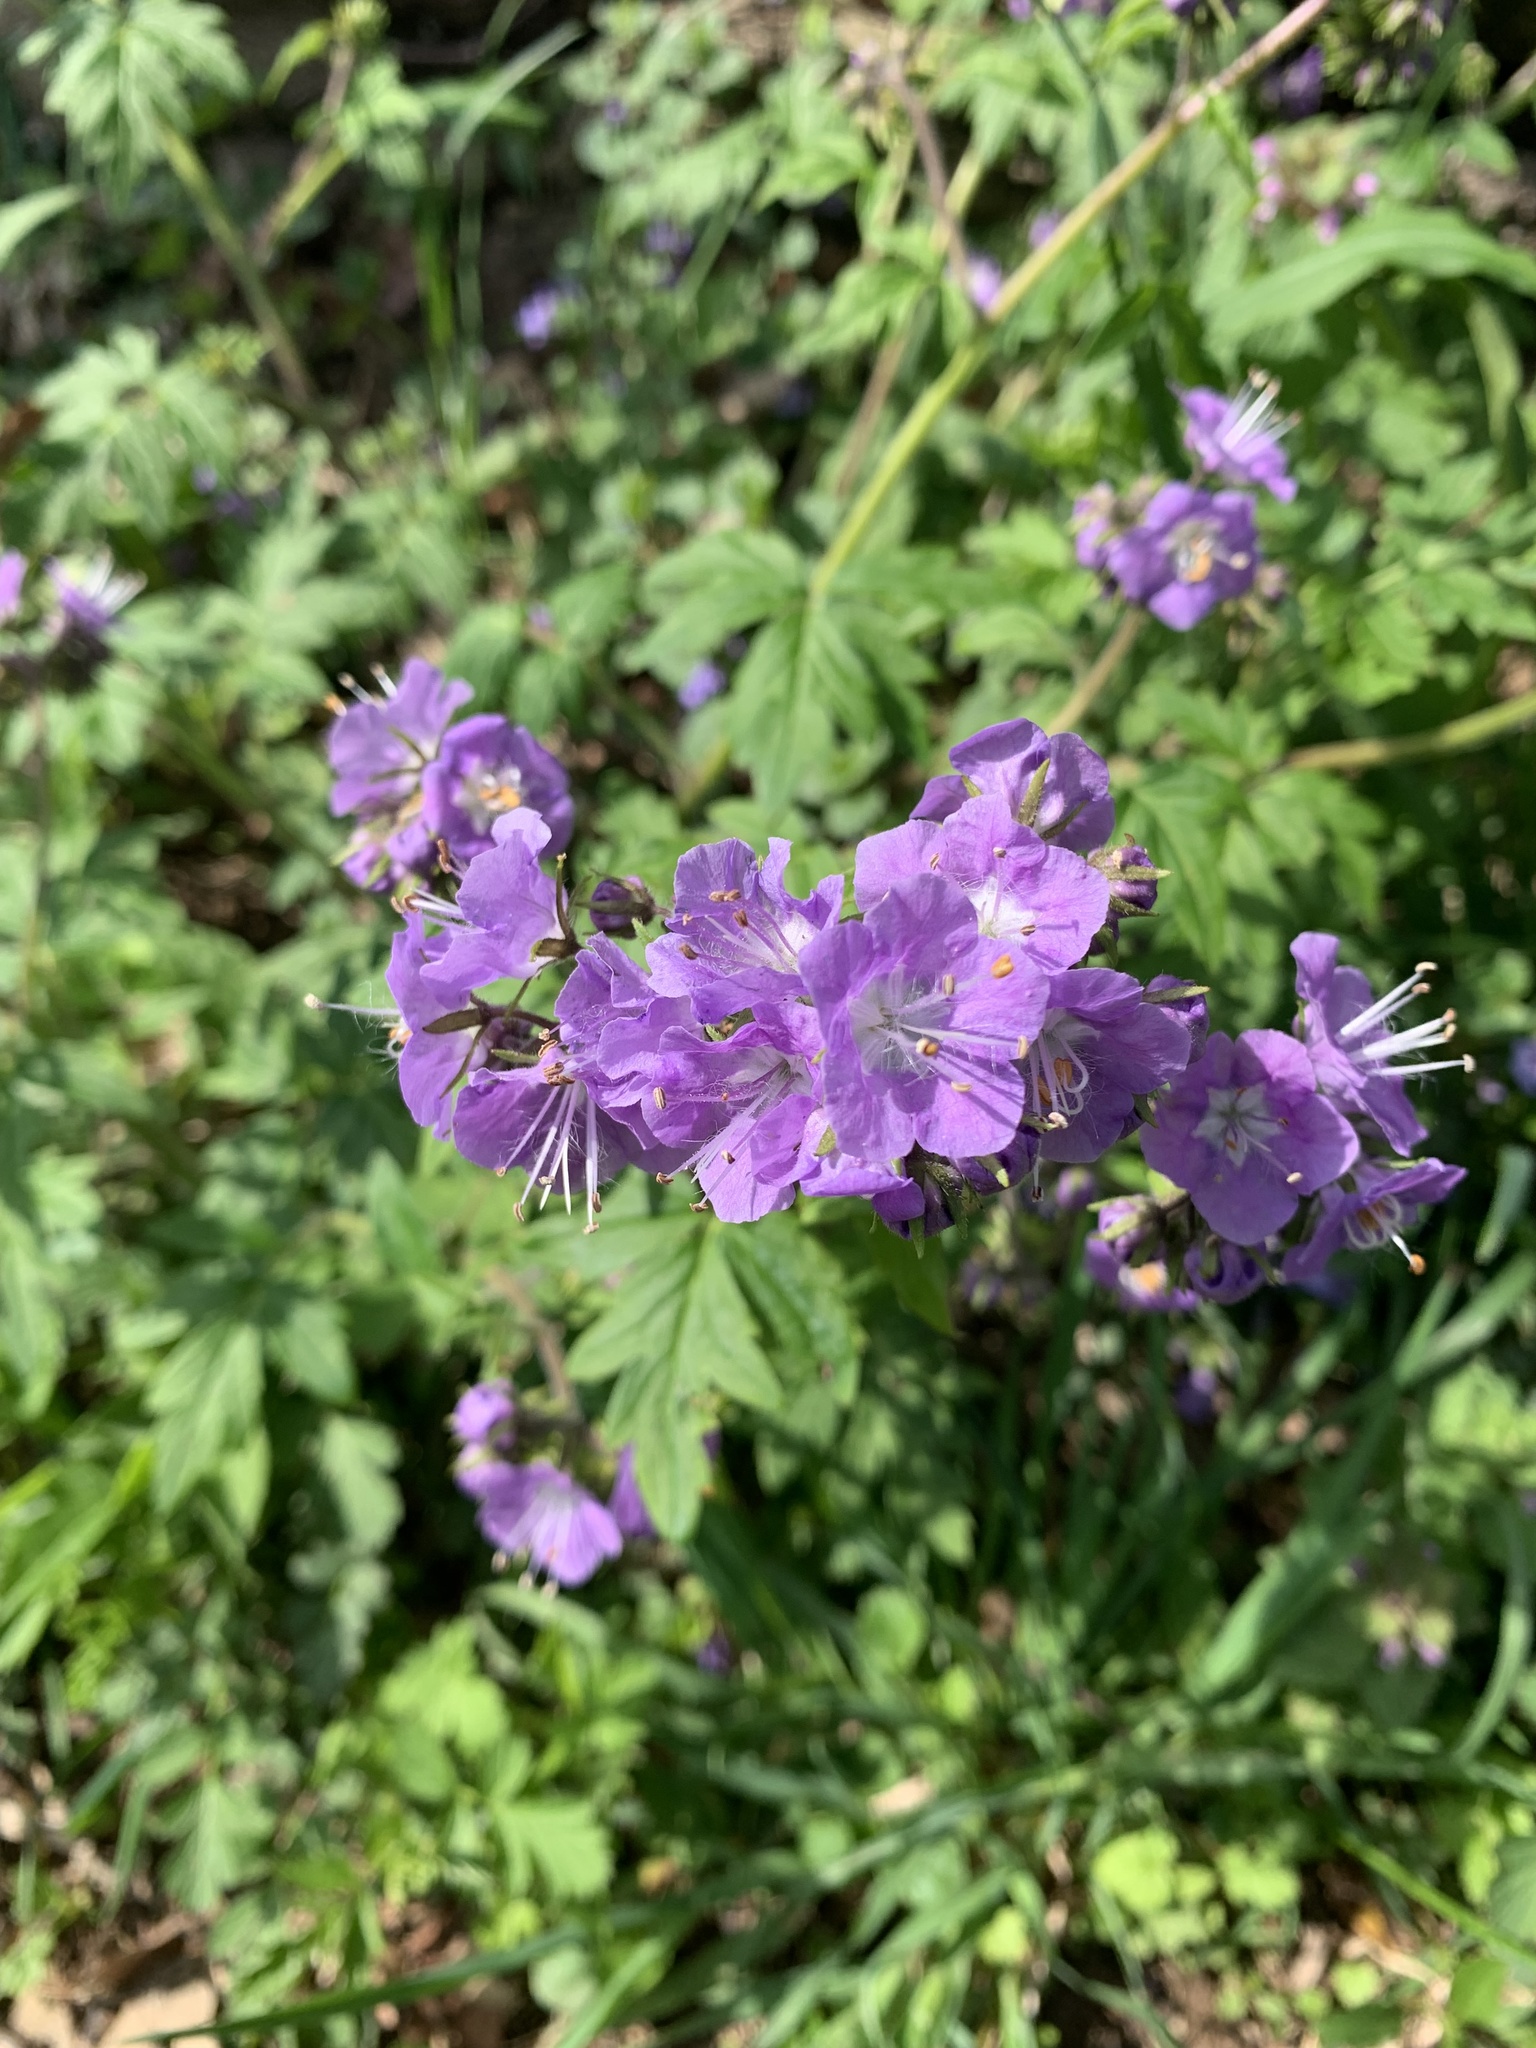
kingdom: Plantae
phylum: Tracheophyta
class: Magnoliopsida
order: Boraginales
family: Hydrophyllaceae
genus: Phacelia
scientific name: Phacelia bipinnatifida
